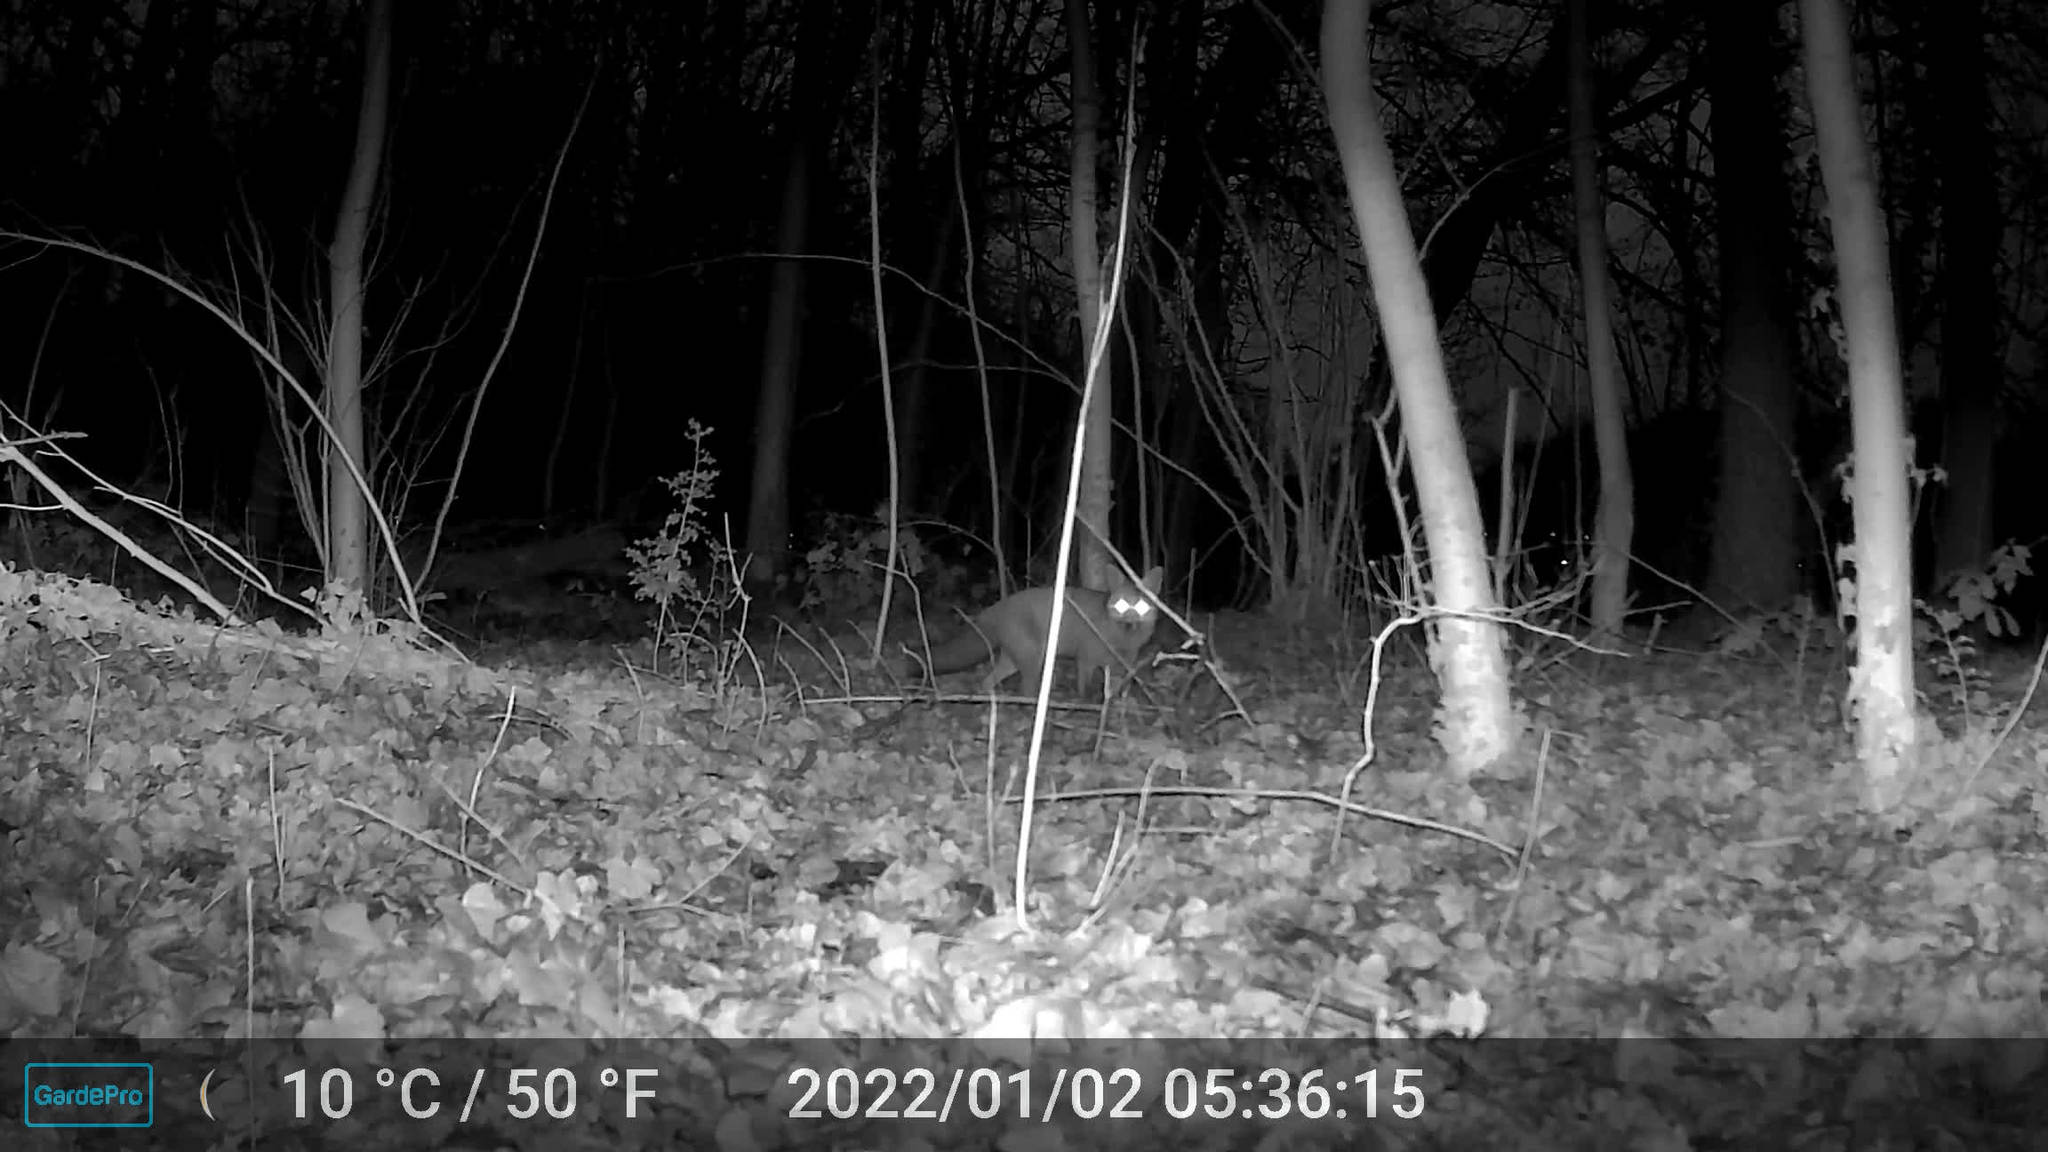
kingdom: Animalia
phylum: Chordata
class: Mammalia
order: Carnivora
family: Canidae
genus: Vulpes
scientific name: Vulpes vulpes
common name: Red fox
